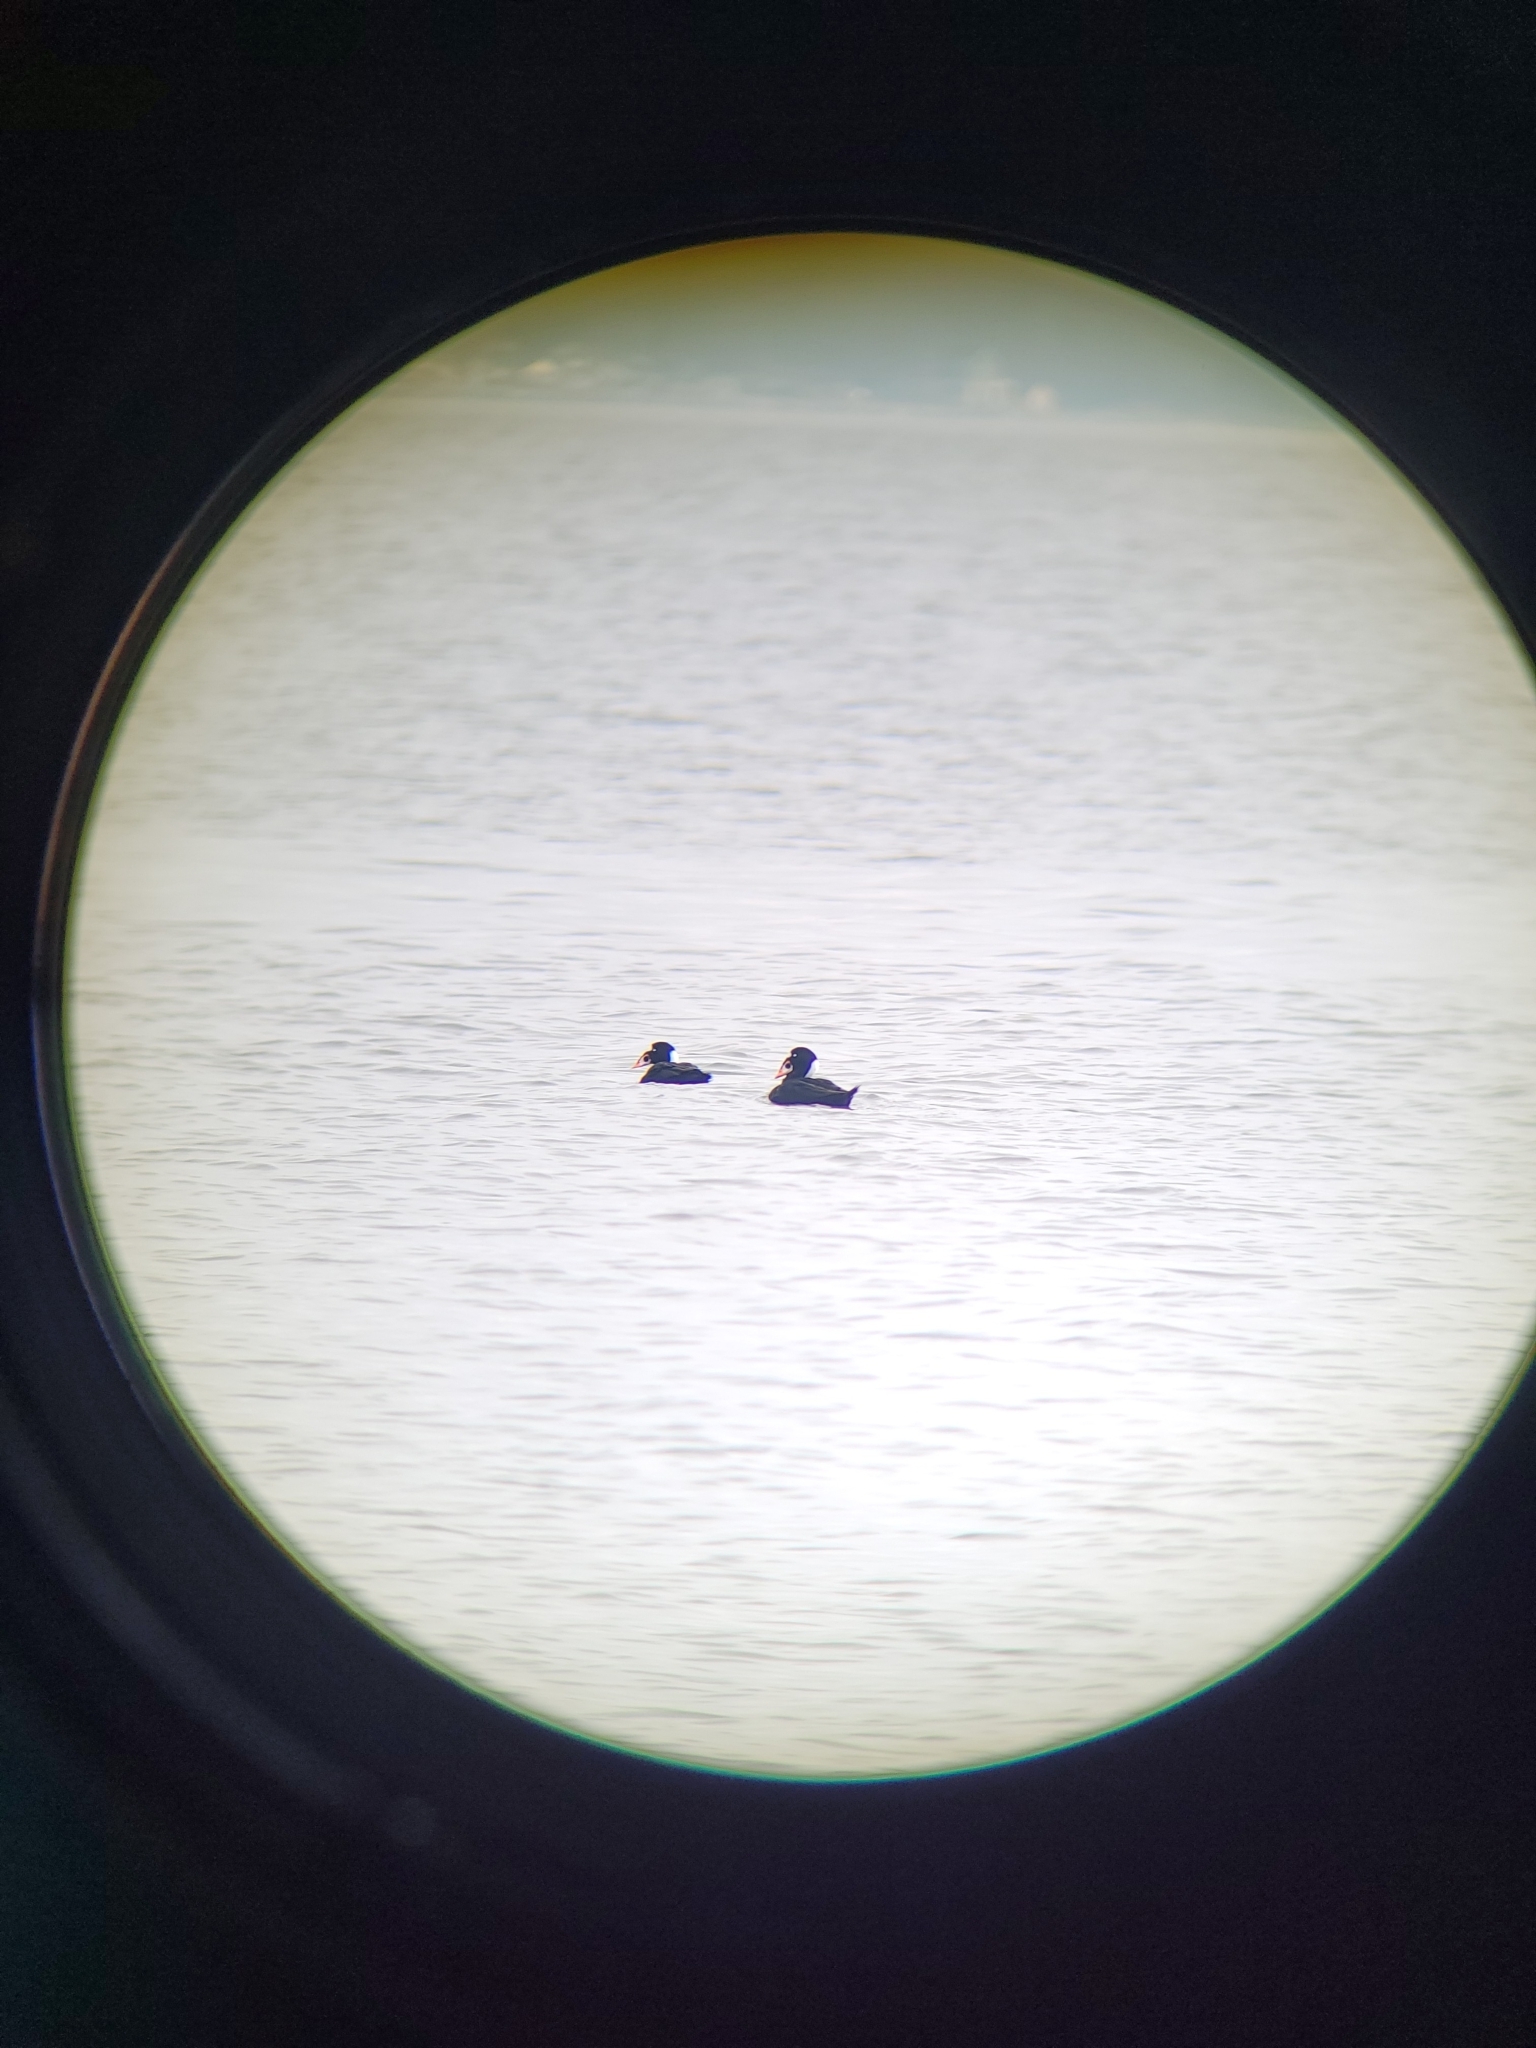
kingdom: Animalia
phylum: Chordata
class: Aves
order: Anseriformes
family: Anatidae
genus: Melanitta
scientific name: Melanitta perspicillata
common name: Surf scoter
